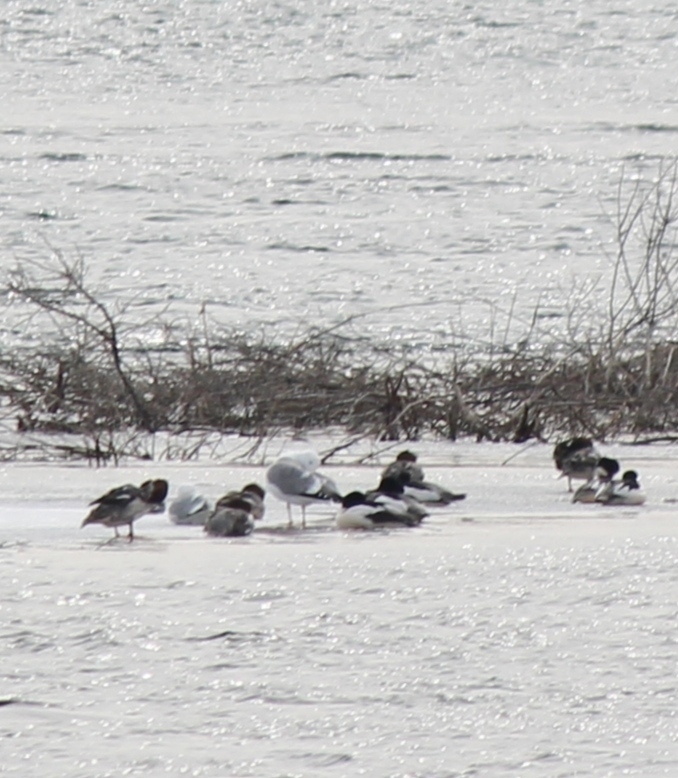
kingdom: Animalia
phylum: Chordata
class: Aves
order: Charadriiformes
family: Laridae
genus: Larus
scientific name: Larus vegae
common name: Vega gull
